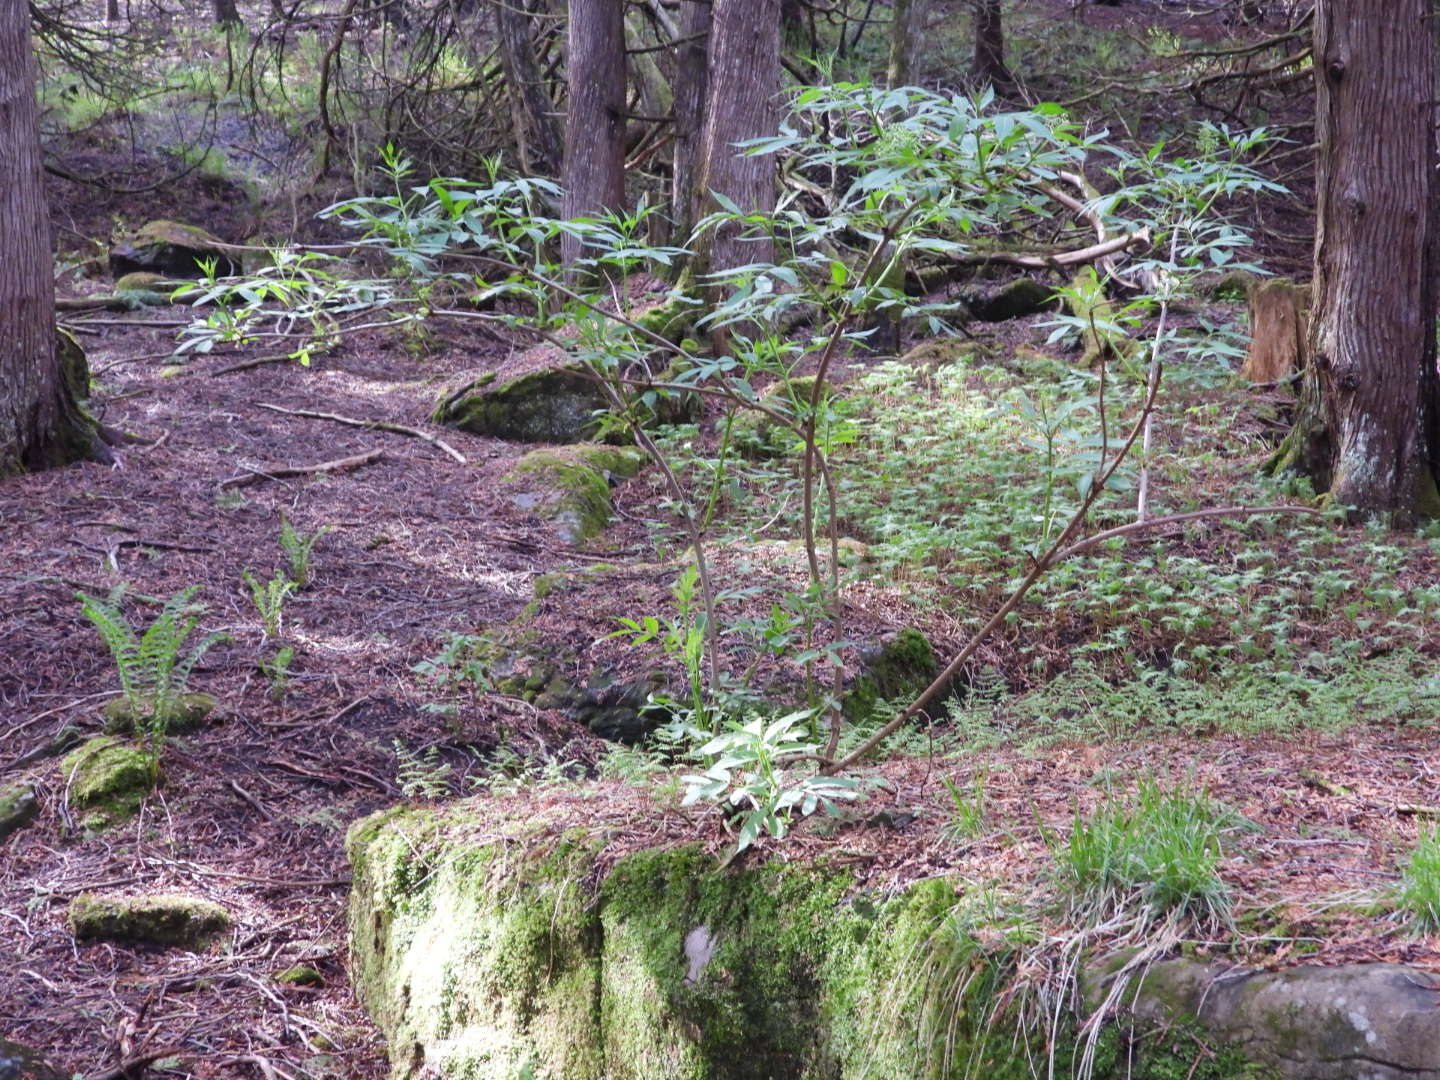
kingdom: Plantae
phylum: Tracheophyta
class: Magnoliopsida
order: Dipsacales
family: Viburnaceae
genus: Sambucus
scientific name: Sambucus racemosa
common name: Red-berried elder
